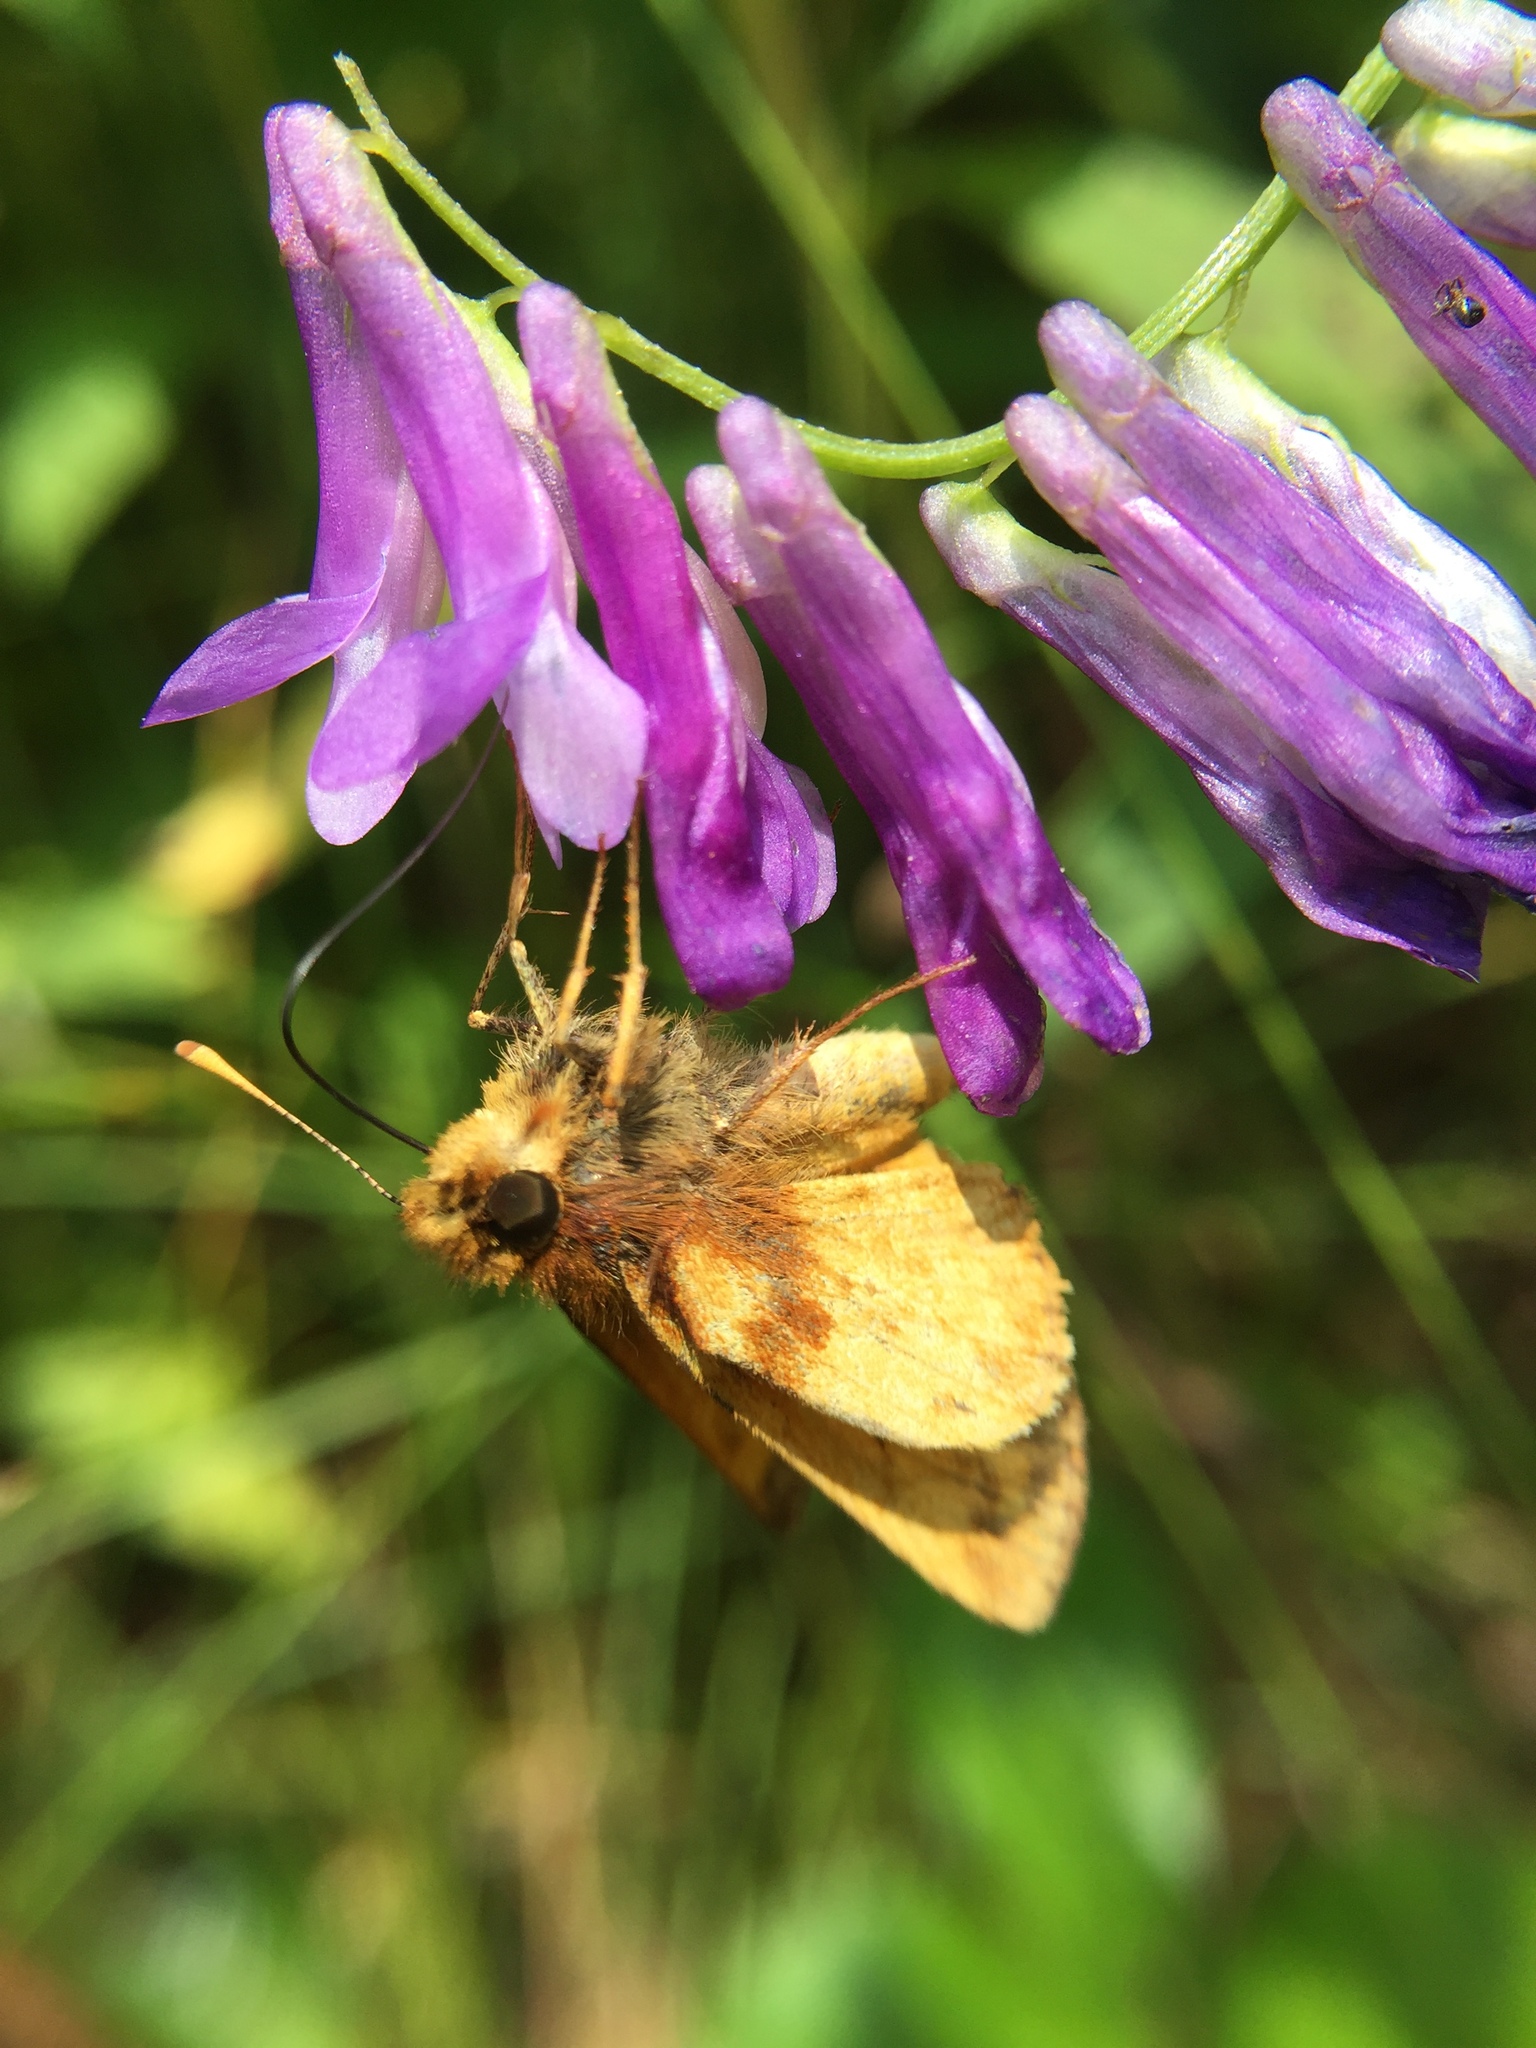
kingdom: Animalia
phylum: Arthropoda
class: Insecta
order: Lepidoptera
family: Hesperiidae
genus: Lon
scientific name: Lon zabulon
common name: Zabulon skipper
